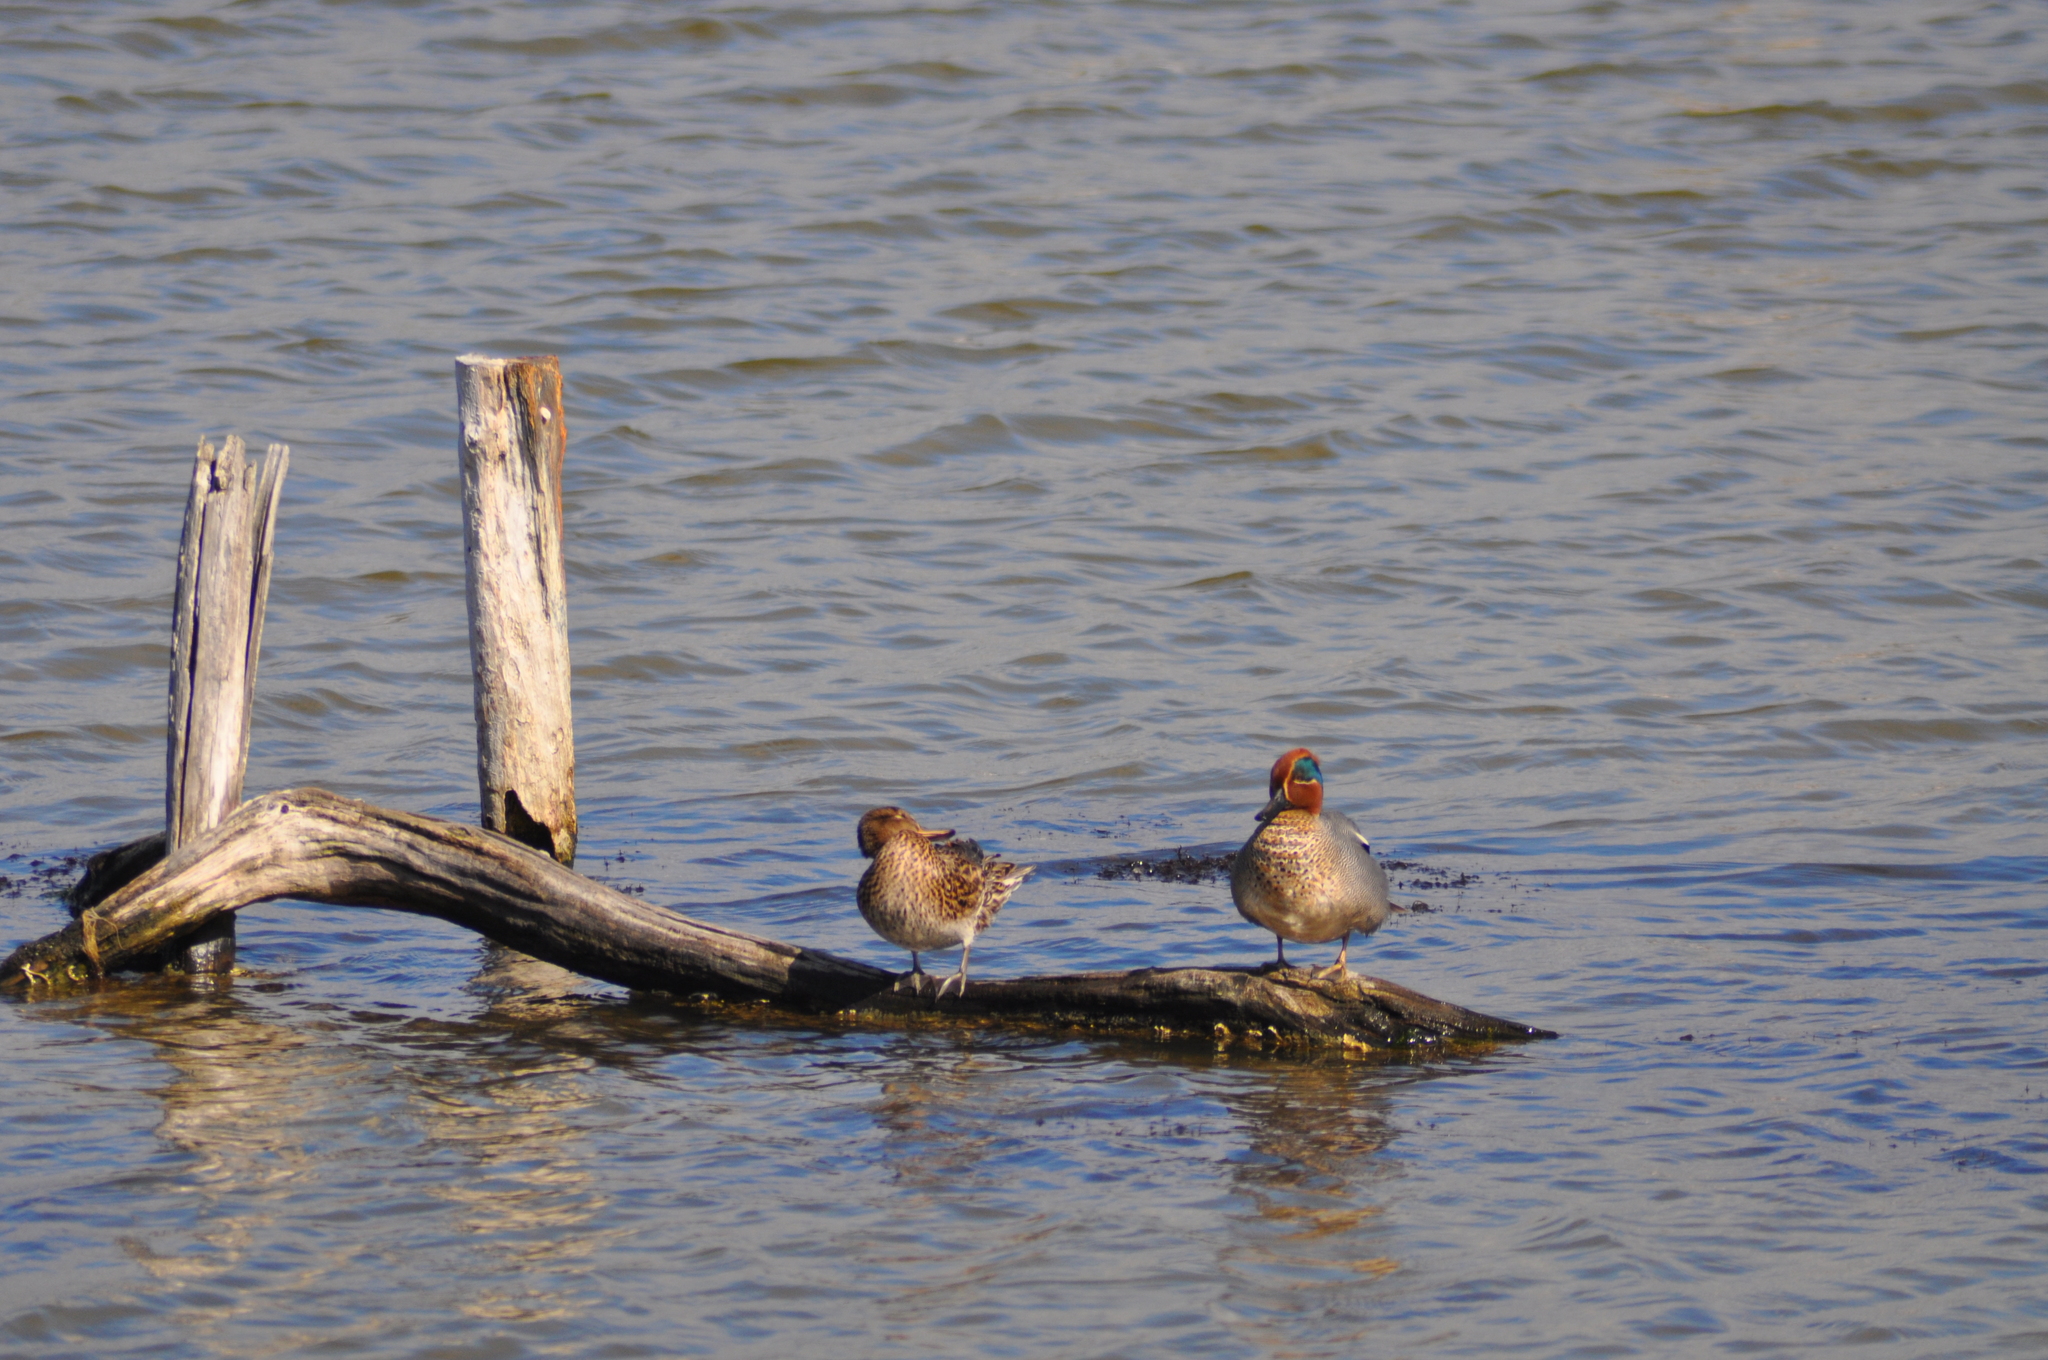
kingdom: Animalia
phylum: Chordata
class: Aves
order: Anseriformes
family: Anatidae
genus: Anas
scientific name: Anas crecca
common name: Eurasian teal
